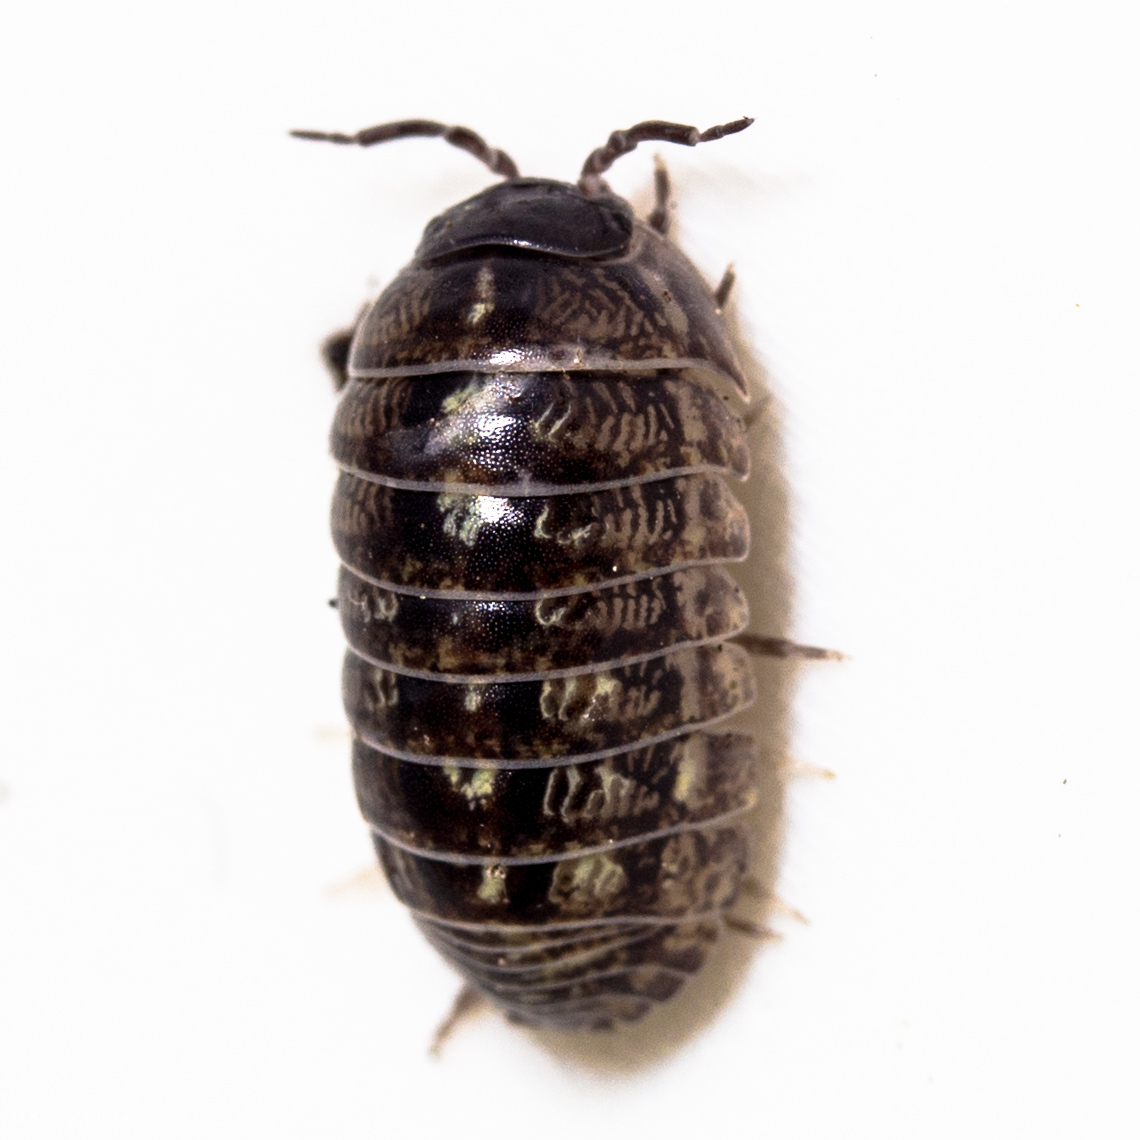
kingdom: Animalia
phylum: Arthropoda
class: Malacostraca
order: Isopoda
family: Armadillidiidae
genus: Armadillidium
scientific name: Armadillidium vulgare
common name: Common pill woodlouse
